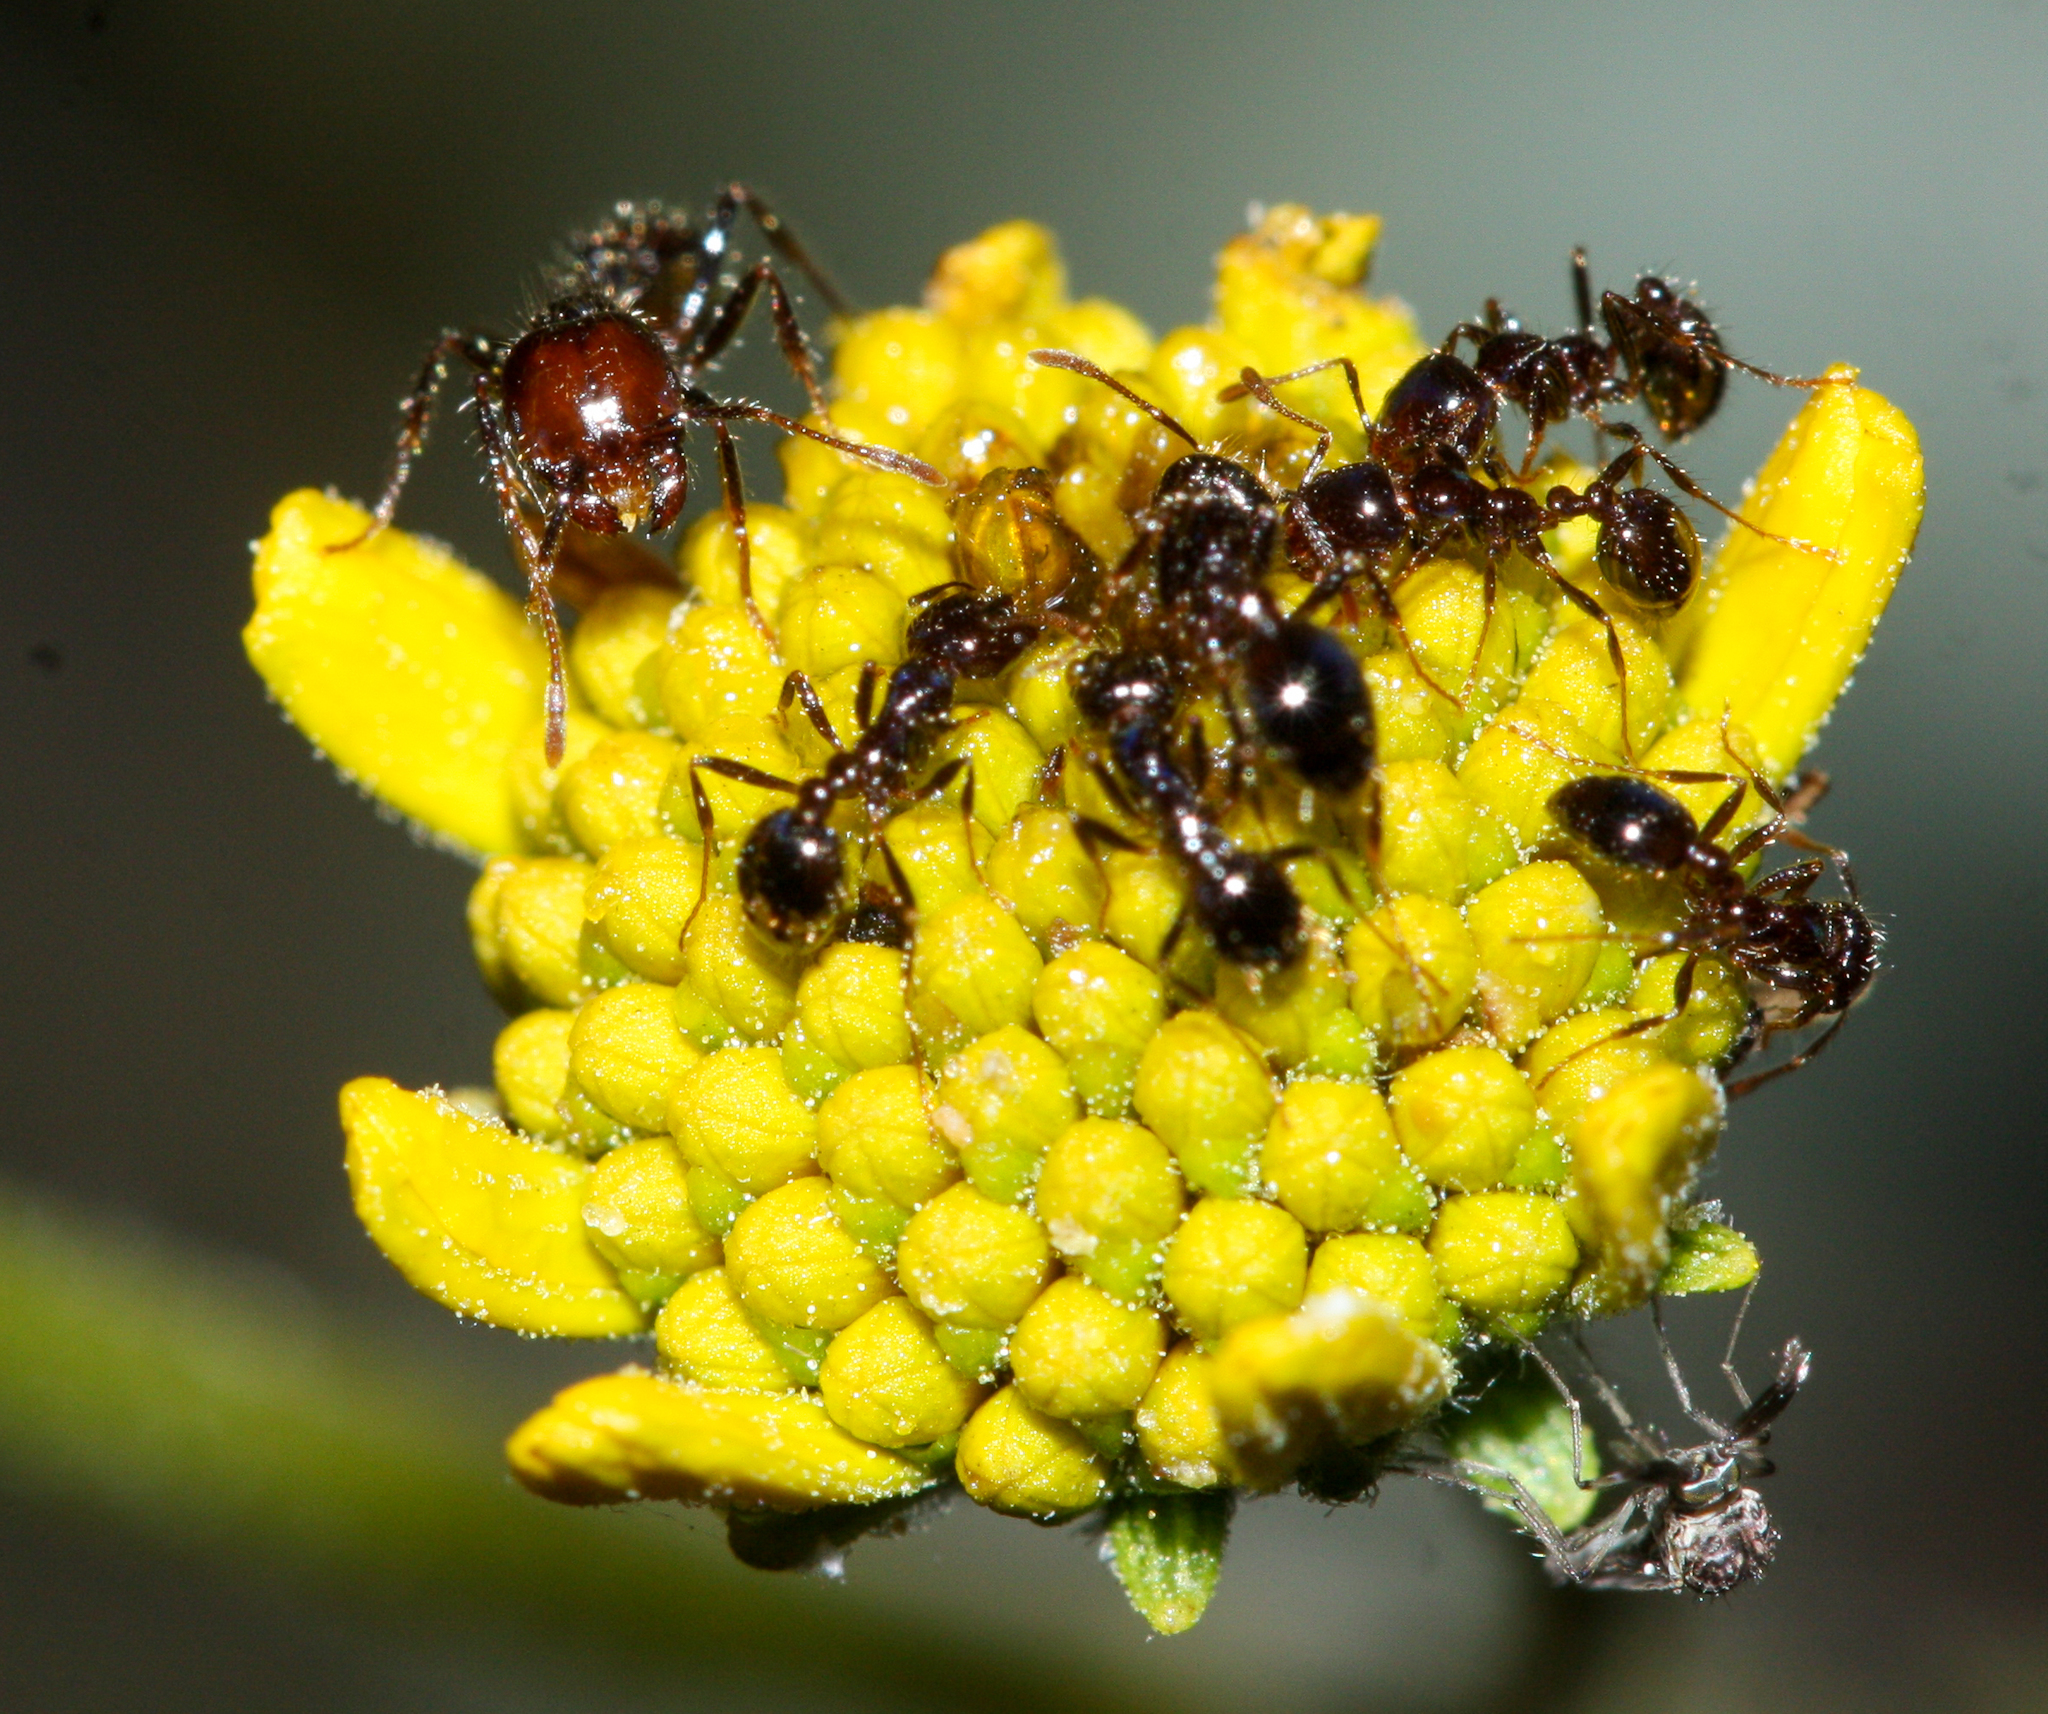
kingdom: Animalia
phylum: Arthropoda
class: Insecta
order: Hymenoptera
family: Formicidae
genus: Solenopsis
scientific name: Solenopsis xyloni
